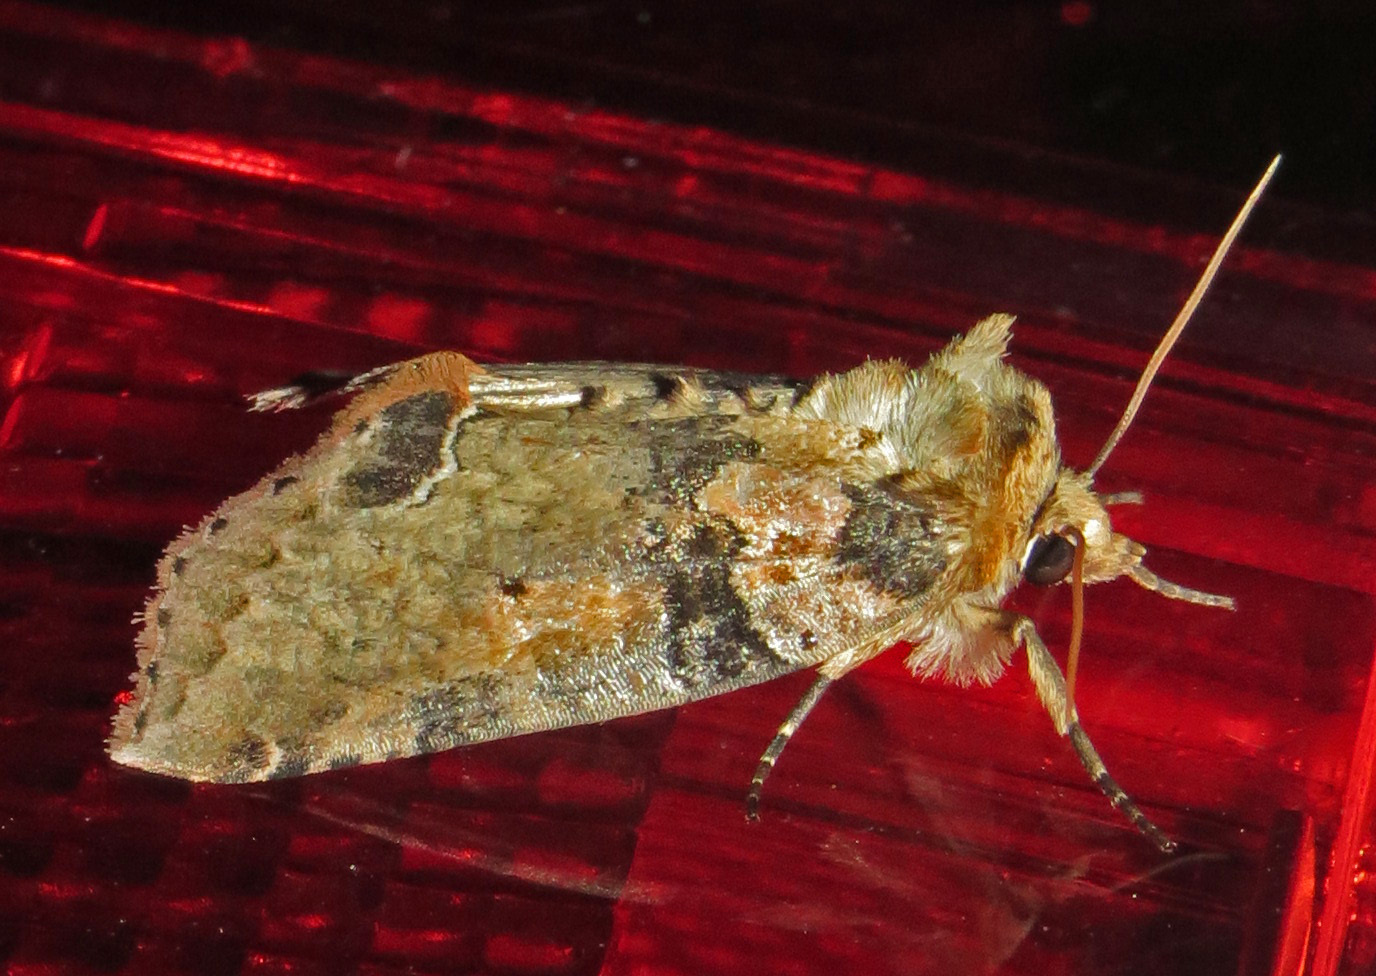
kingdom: Animalia
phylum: Arthropoda
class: Insecta
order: Lepidoptera
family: Drepanidae
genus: Pseudothyatira
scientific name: Pseudothyatira cymatophoroides
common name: Tufted thyatirid moth
